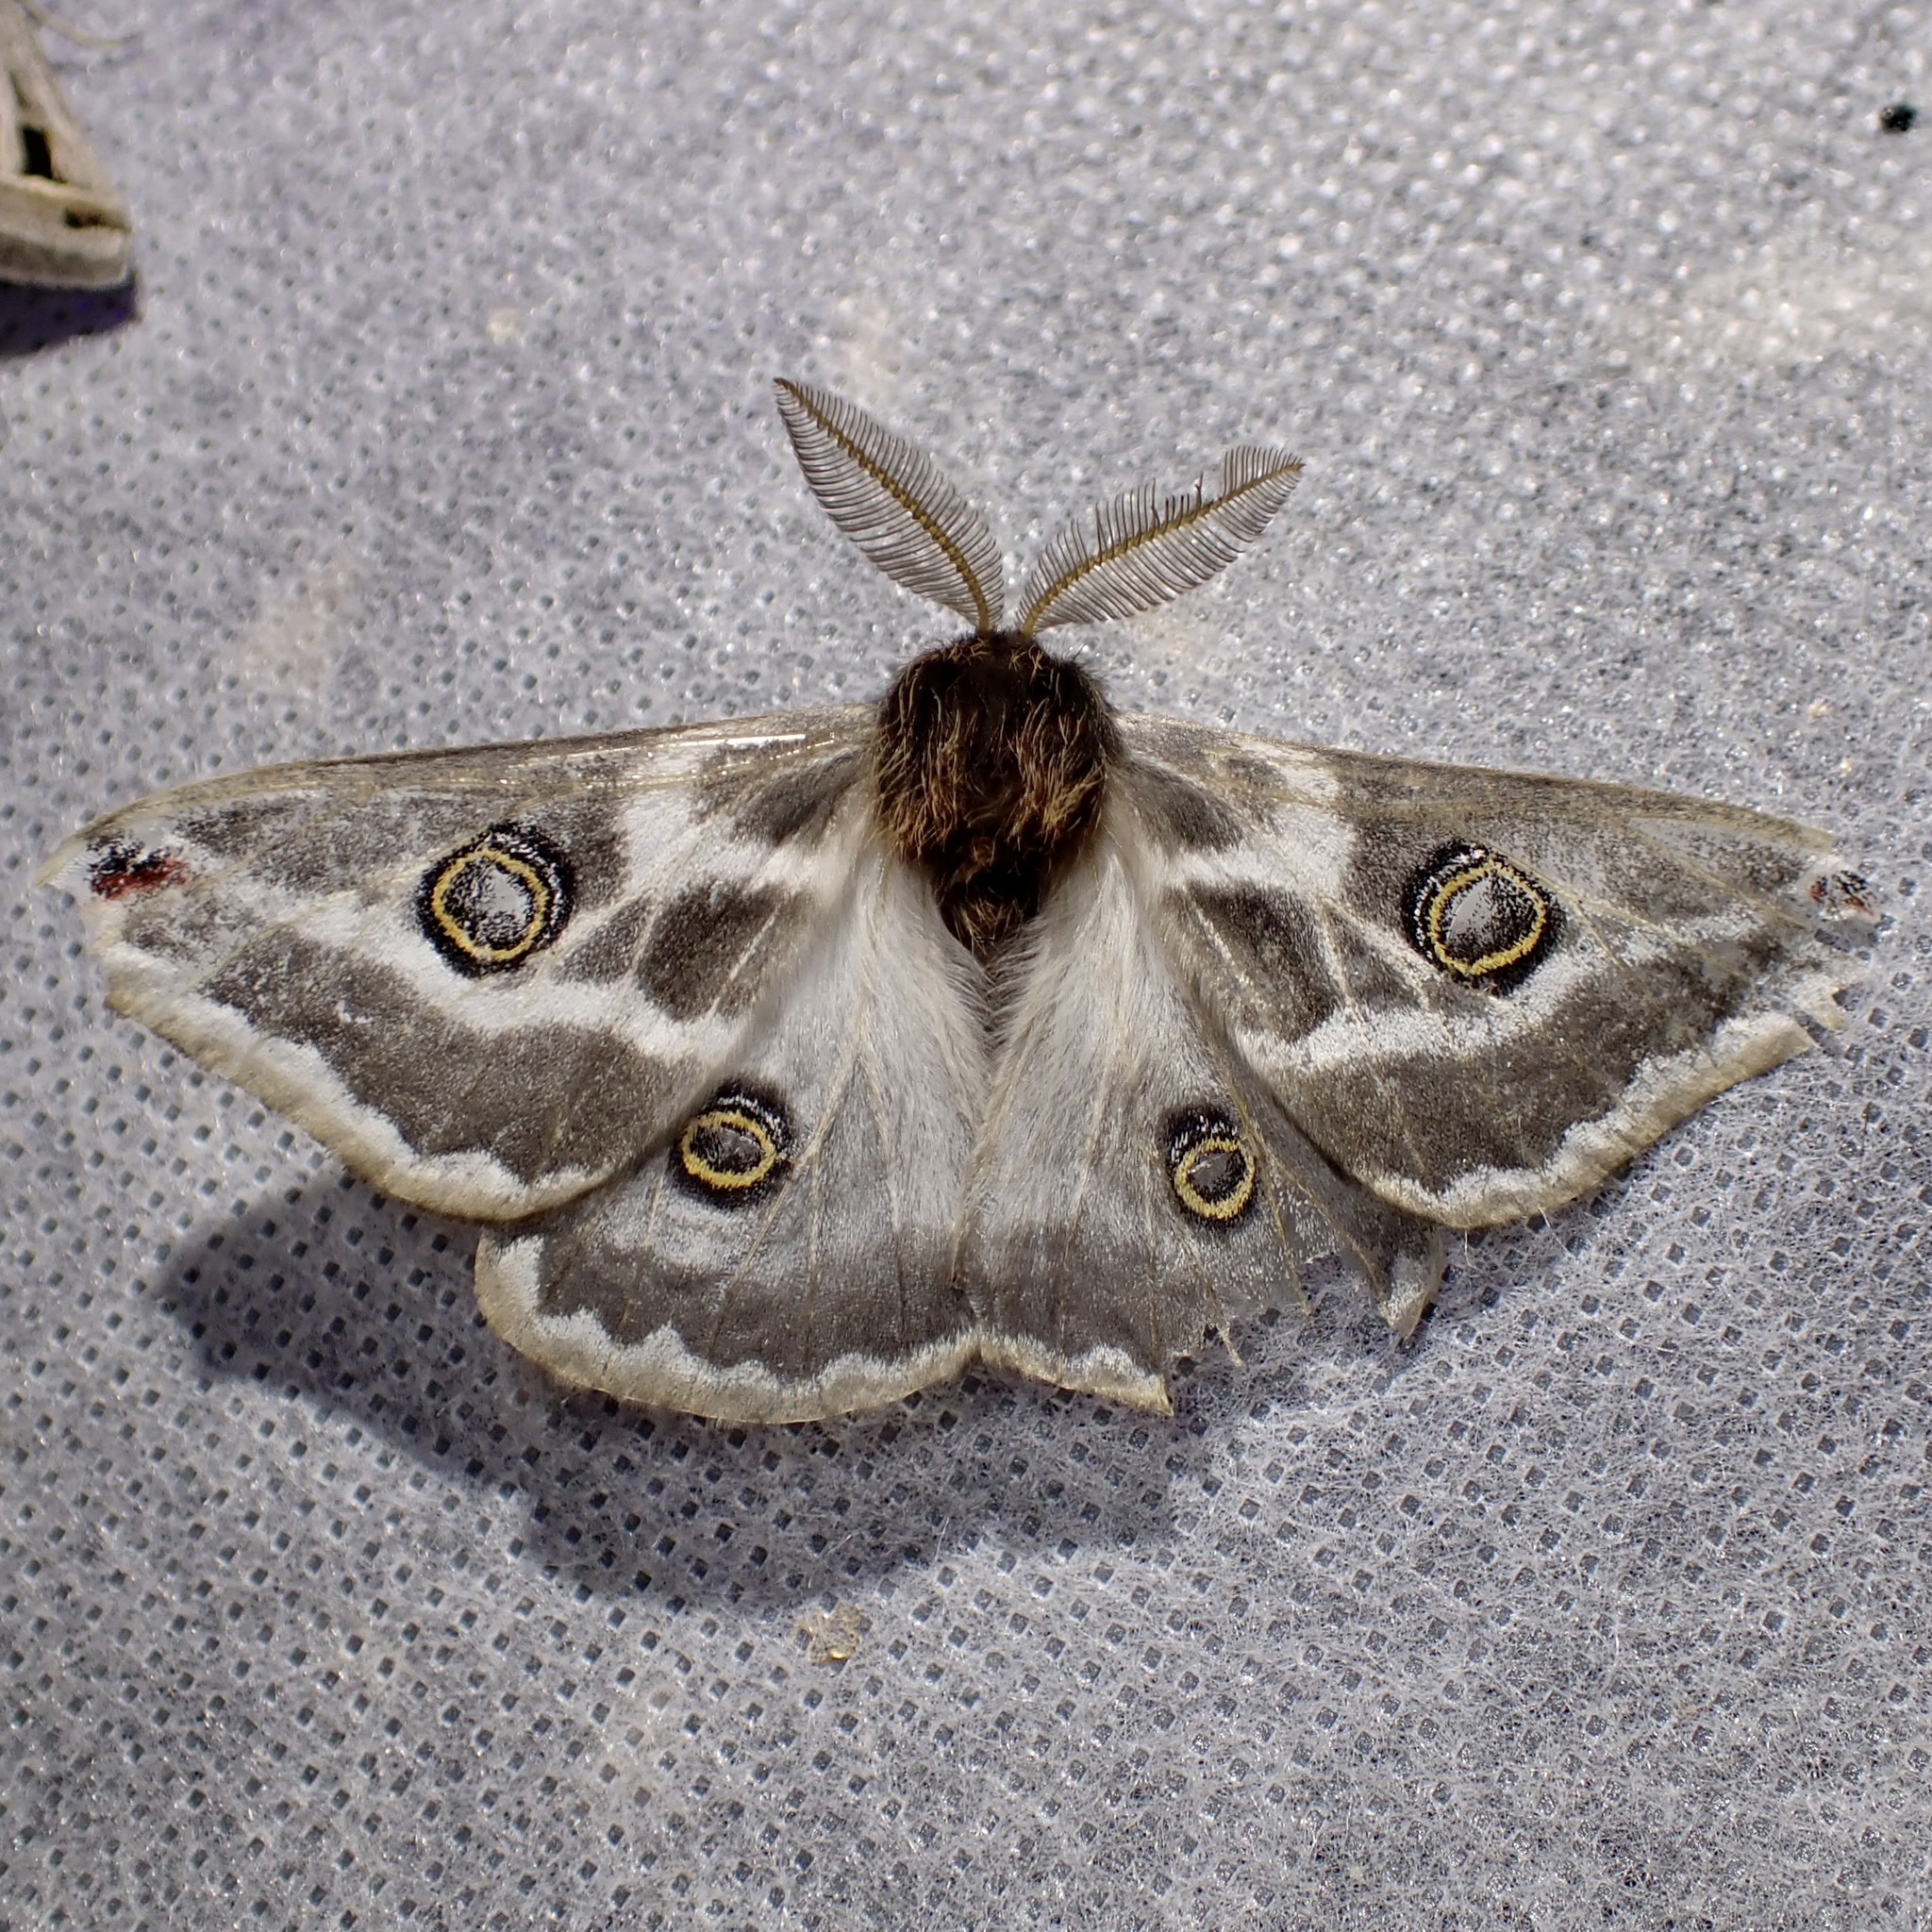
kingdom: Animalia
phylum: Arthropoda
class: Insecta
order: Lepidoptera
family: Saturniidae
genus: Saturnia
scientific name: Saturnia anona
